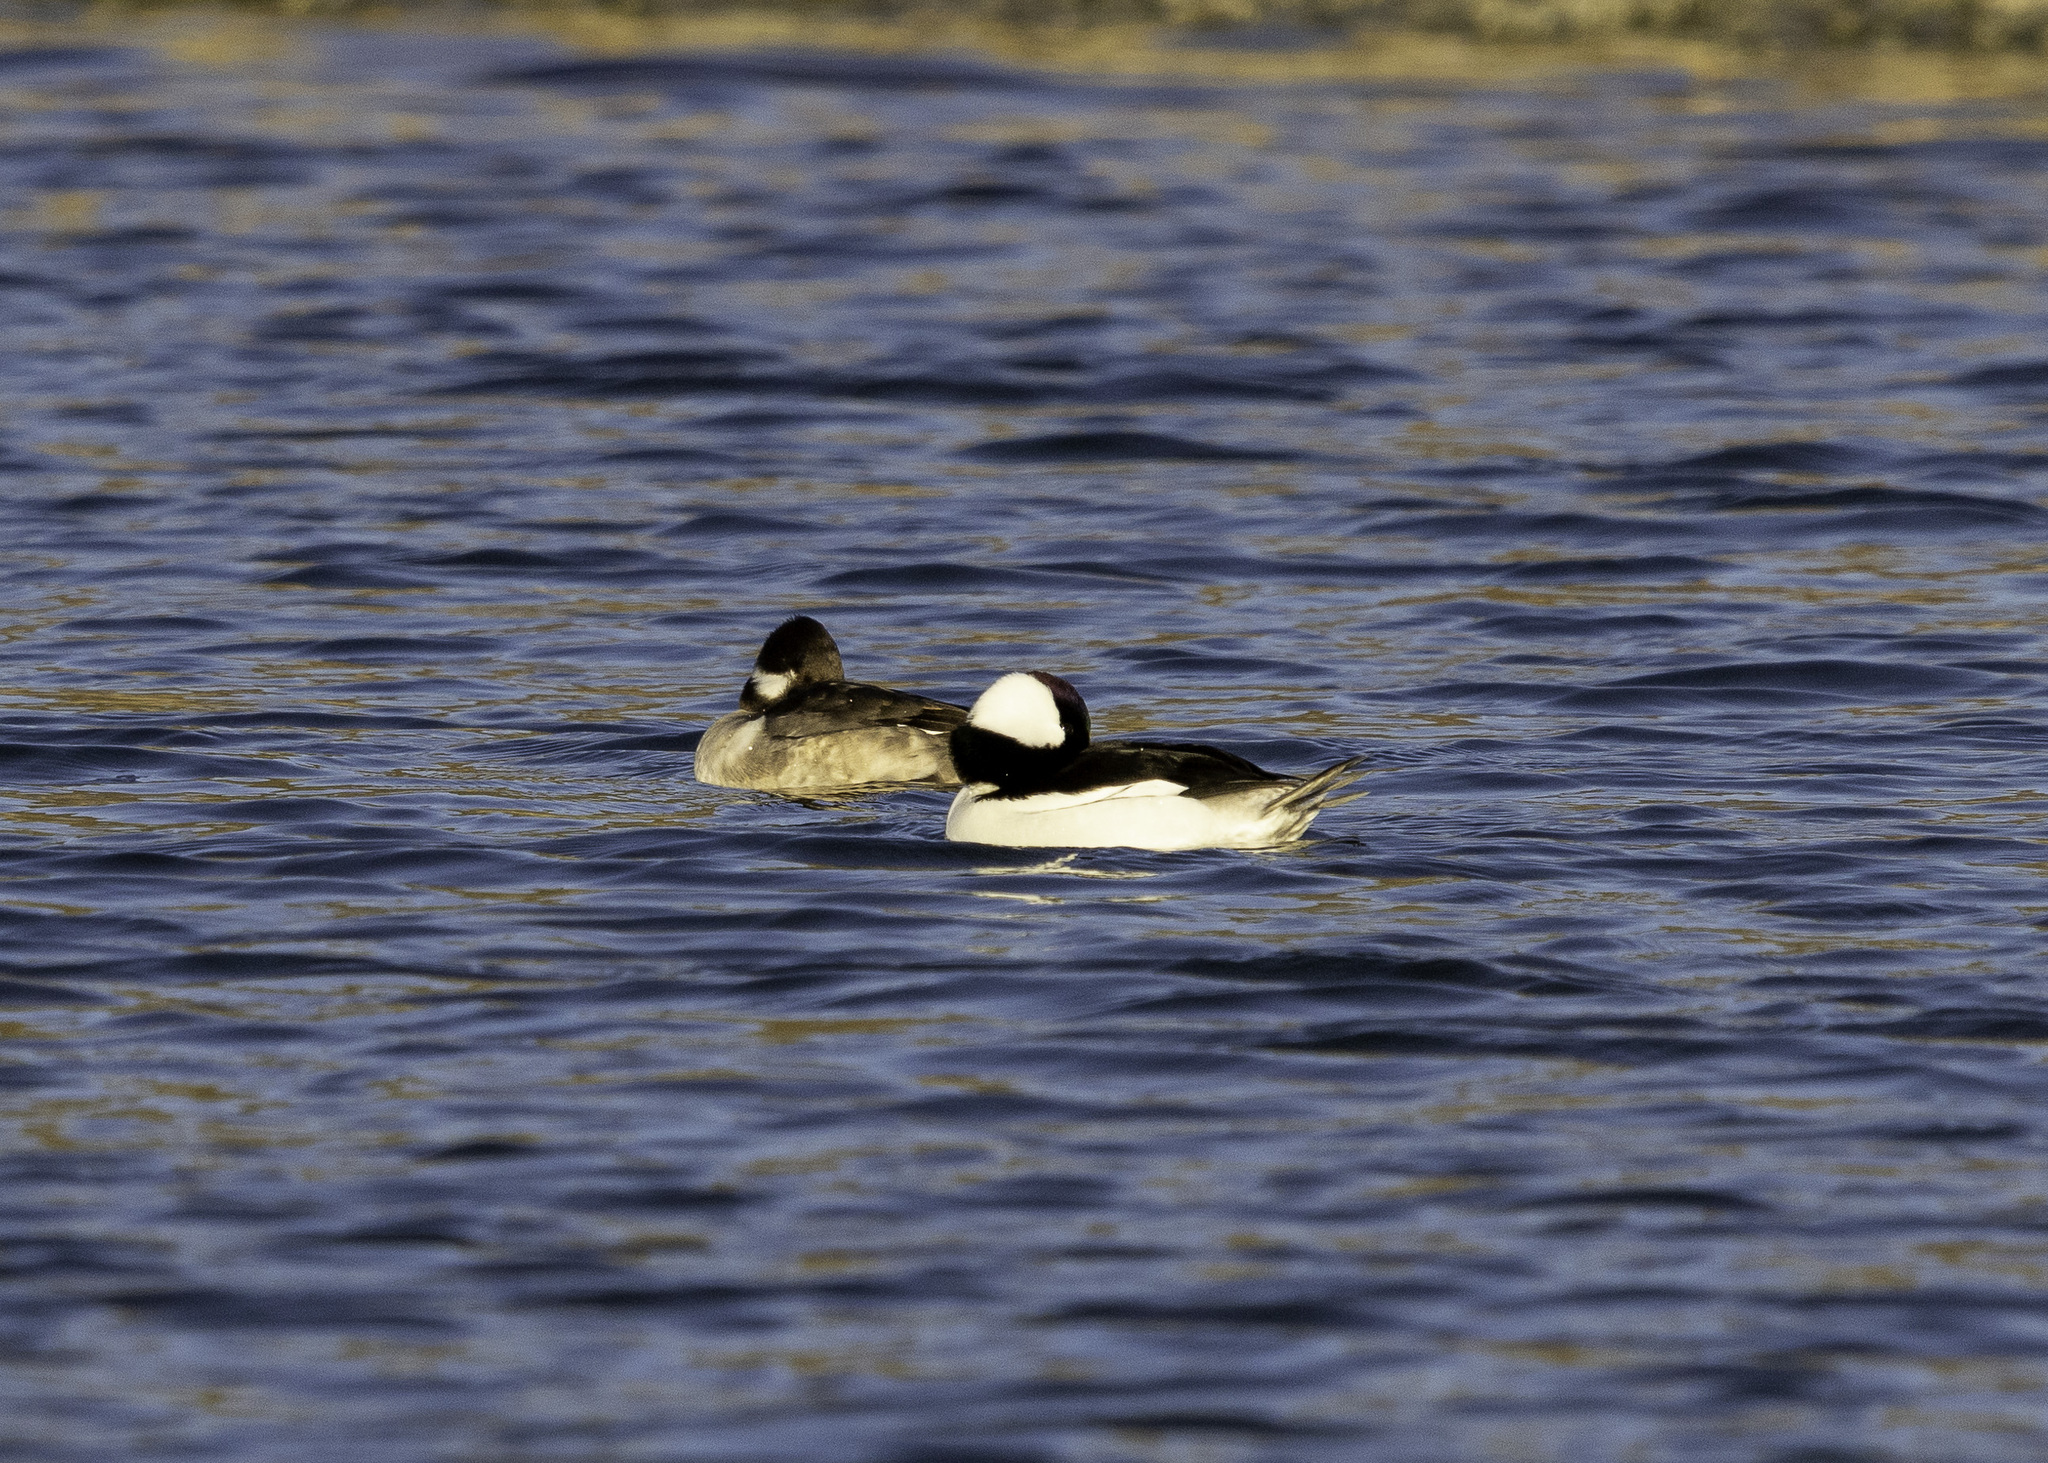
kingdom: Animalia
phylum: Chordata
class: Aves
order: Anseriformes
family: Anatidae
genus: Bucephala
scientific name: Bucephala albeola
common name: Bufflehead
